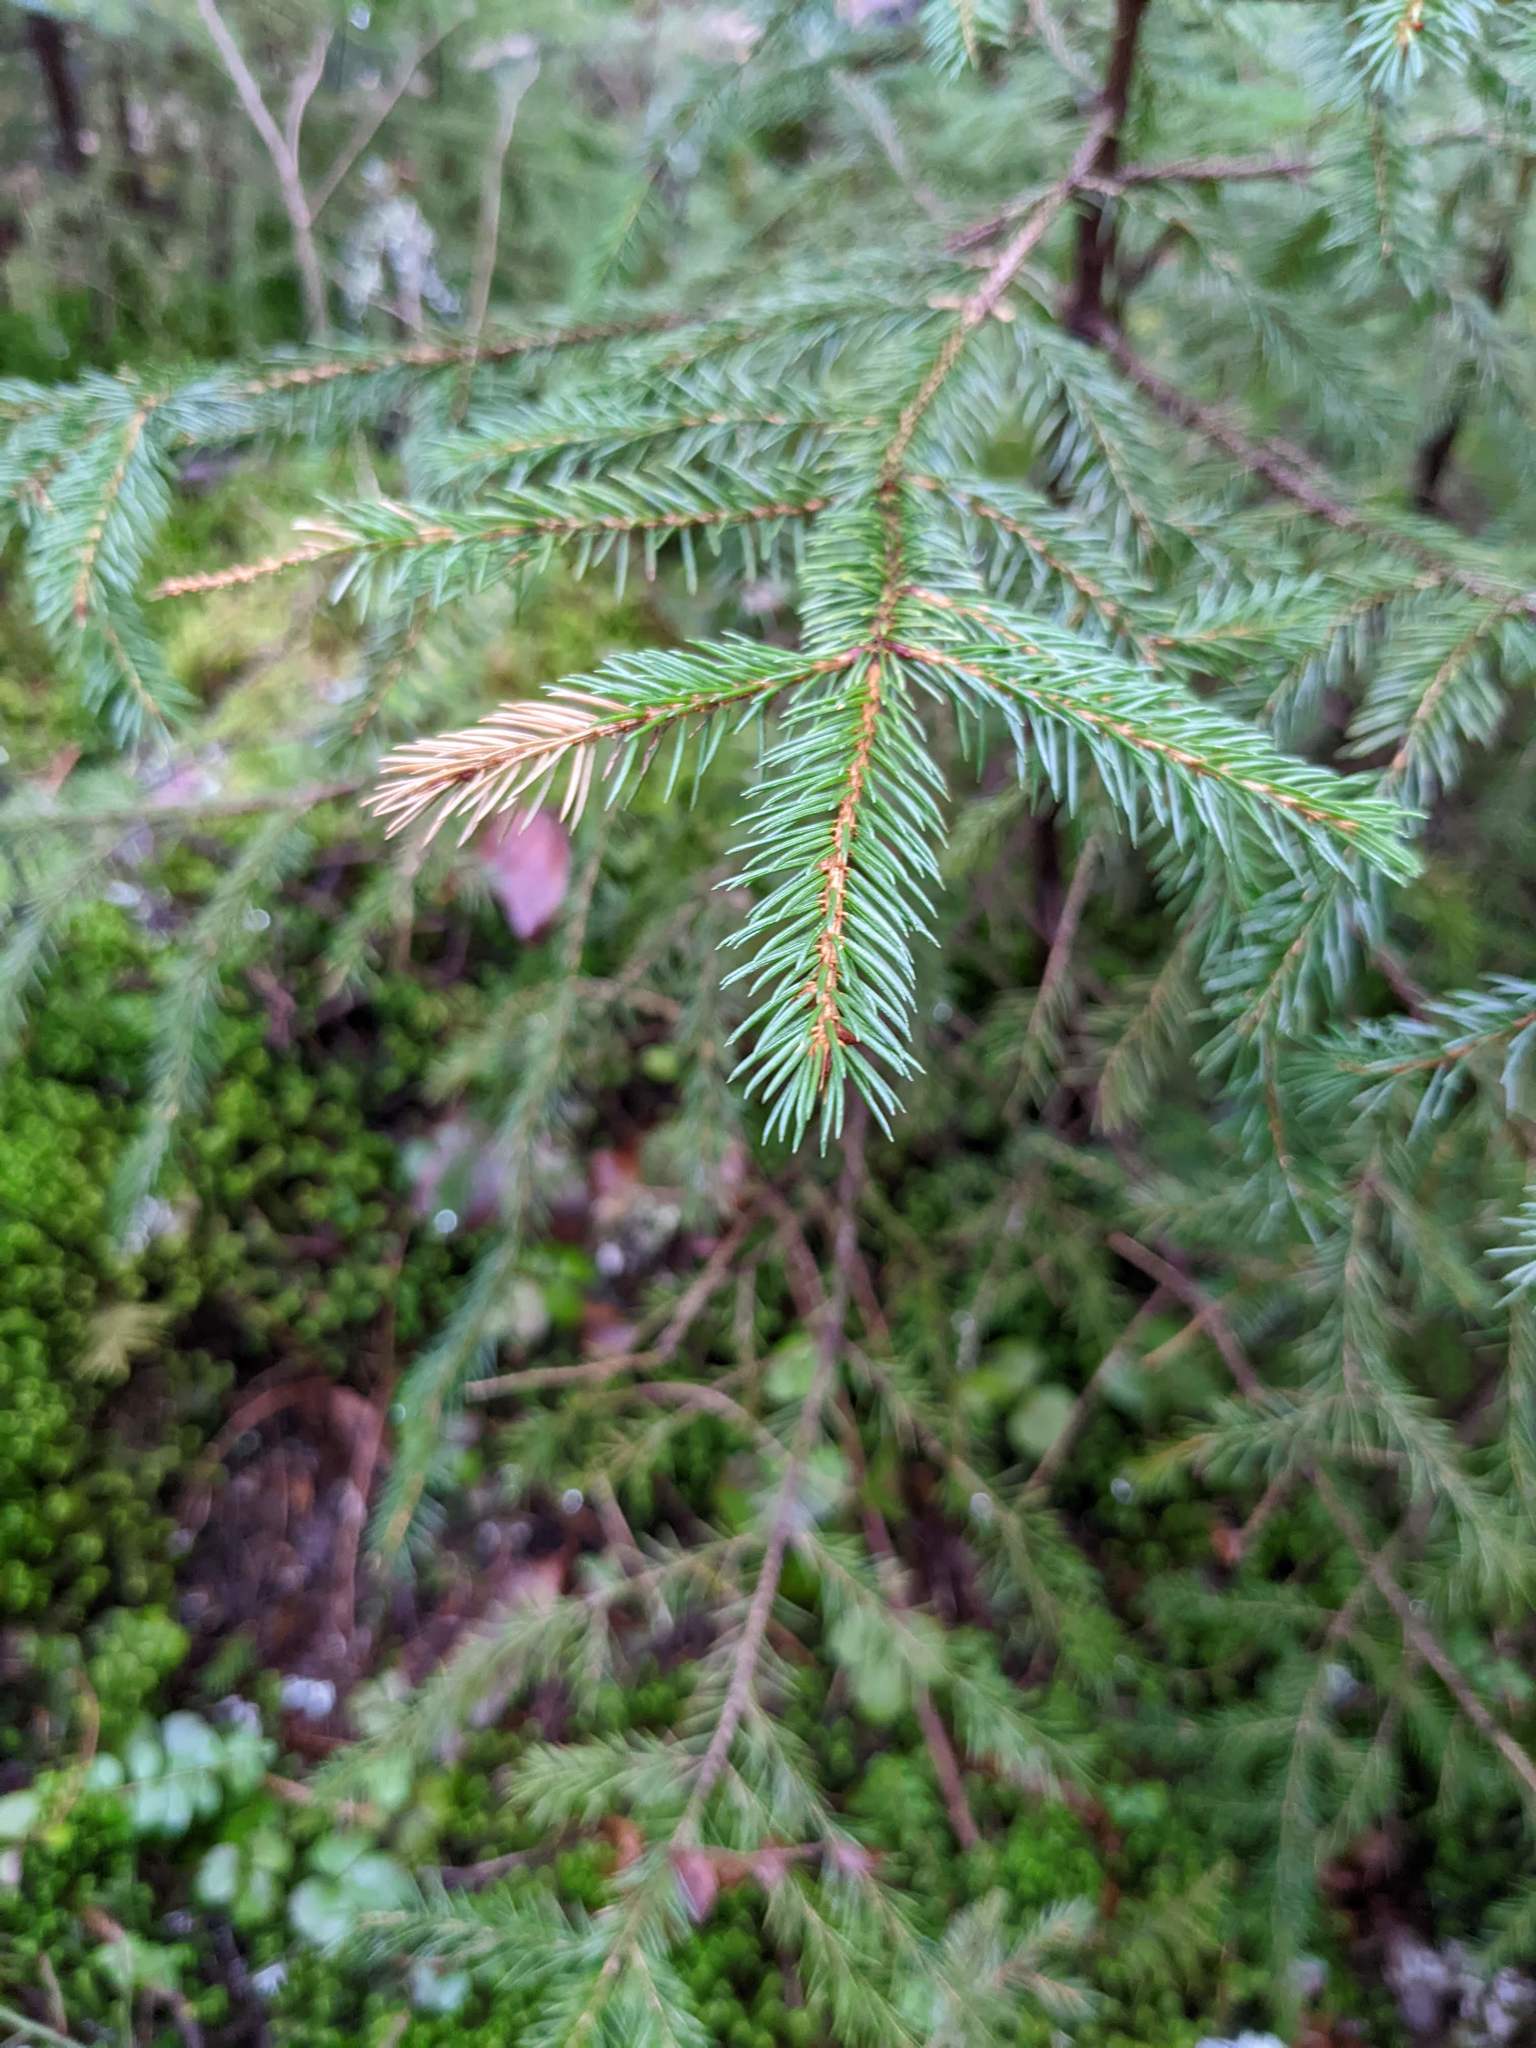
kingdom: Plantae
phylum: Tracheophyta
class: Pinopsida
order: Pinales
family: Pinaceae
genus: Picea
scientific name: Picea rubens
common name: Red spruce
